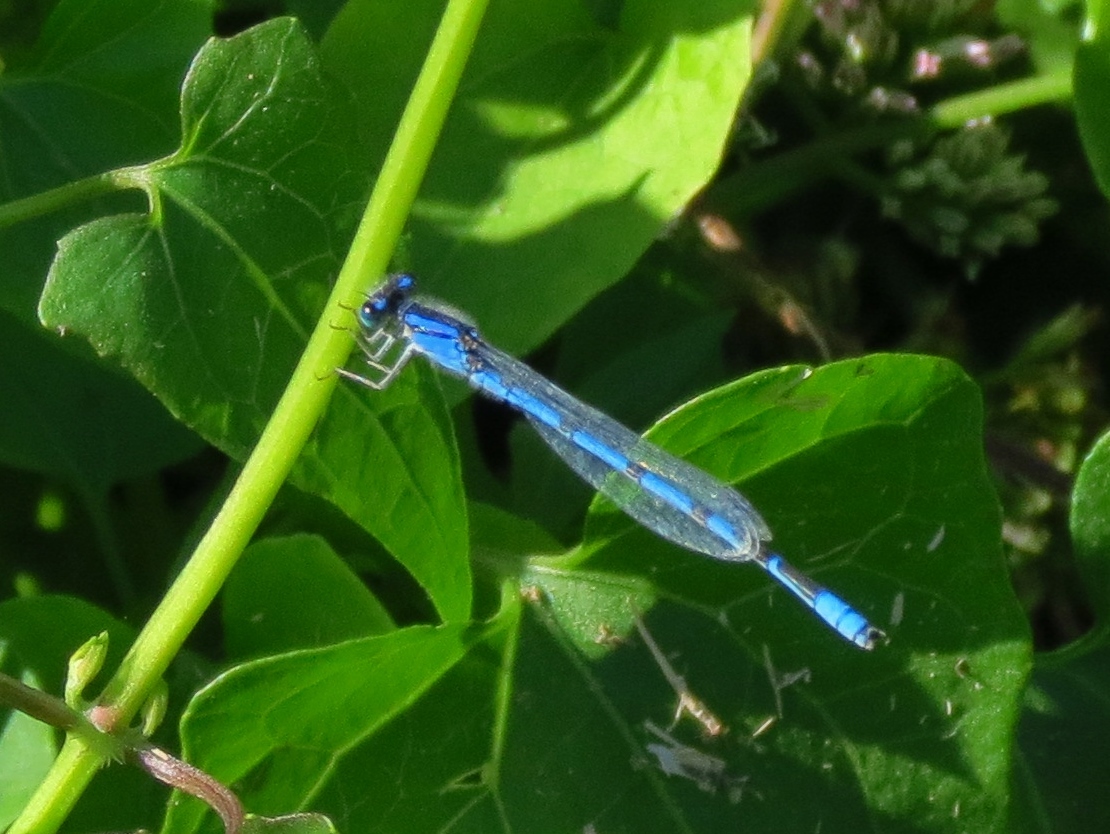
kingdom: Animalia
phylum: Arthropoda
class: Insecta
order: Odonata
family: Coenagrionidae
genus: Enallagma
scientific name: Enallagma civile
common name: Damselfly
